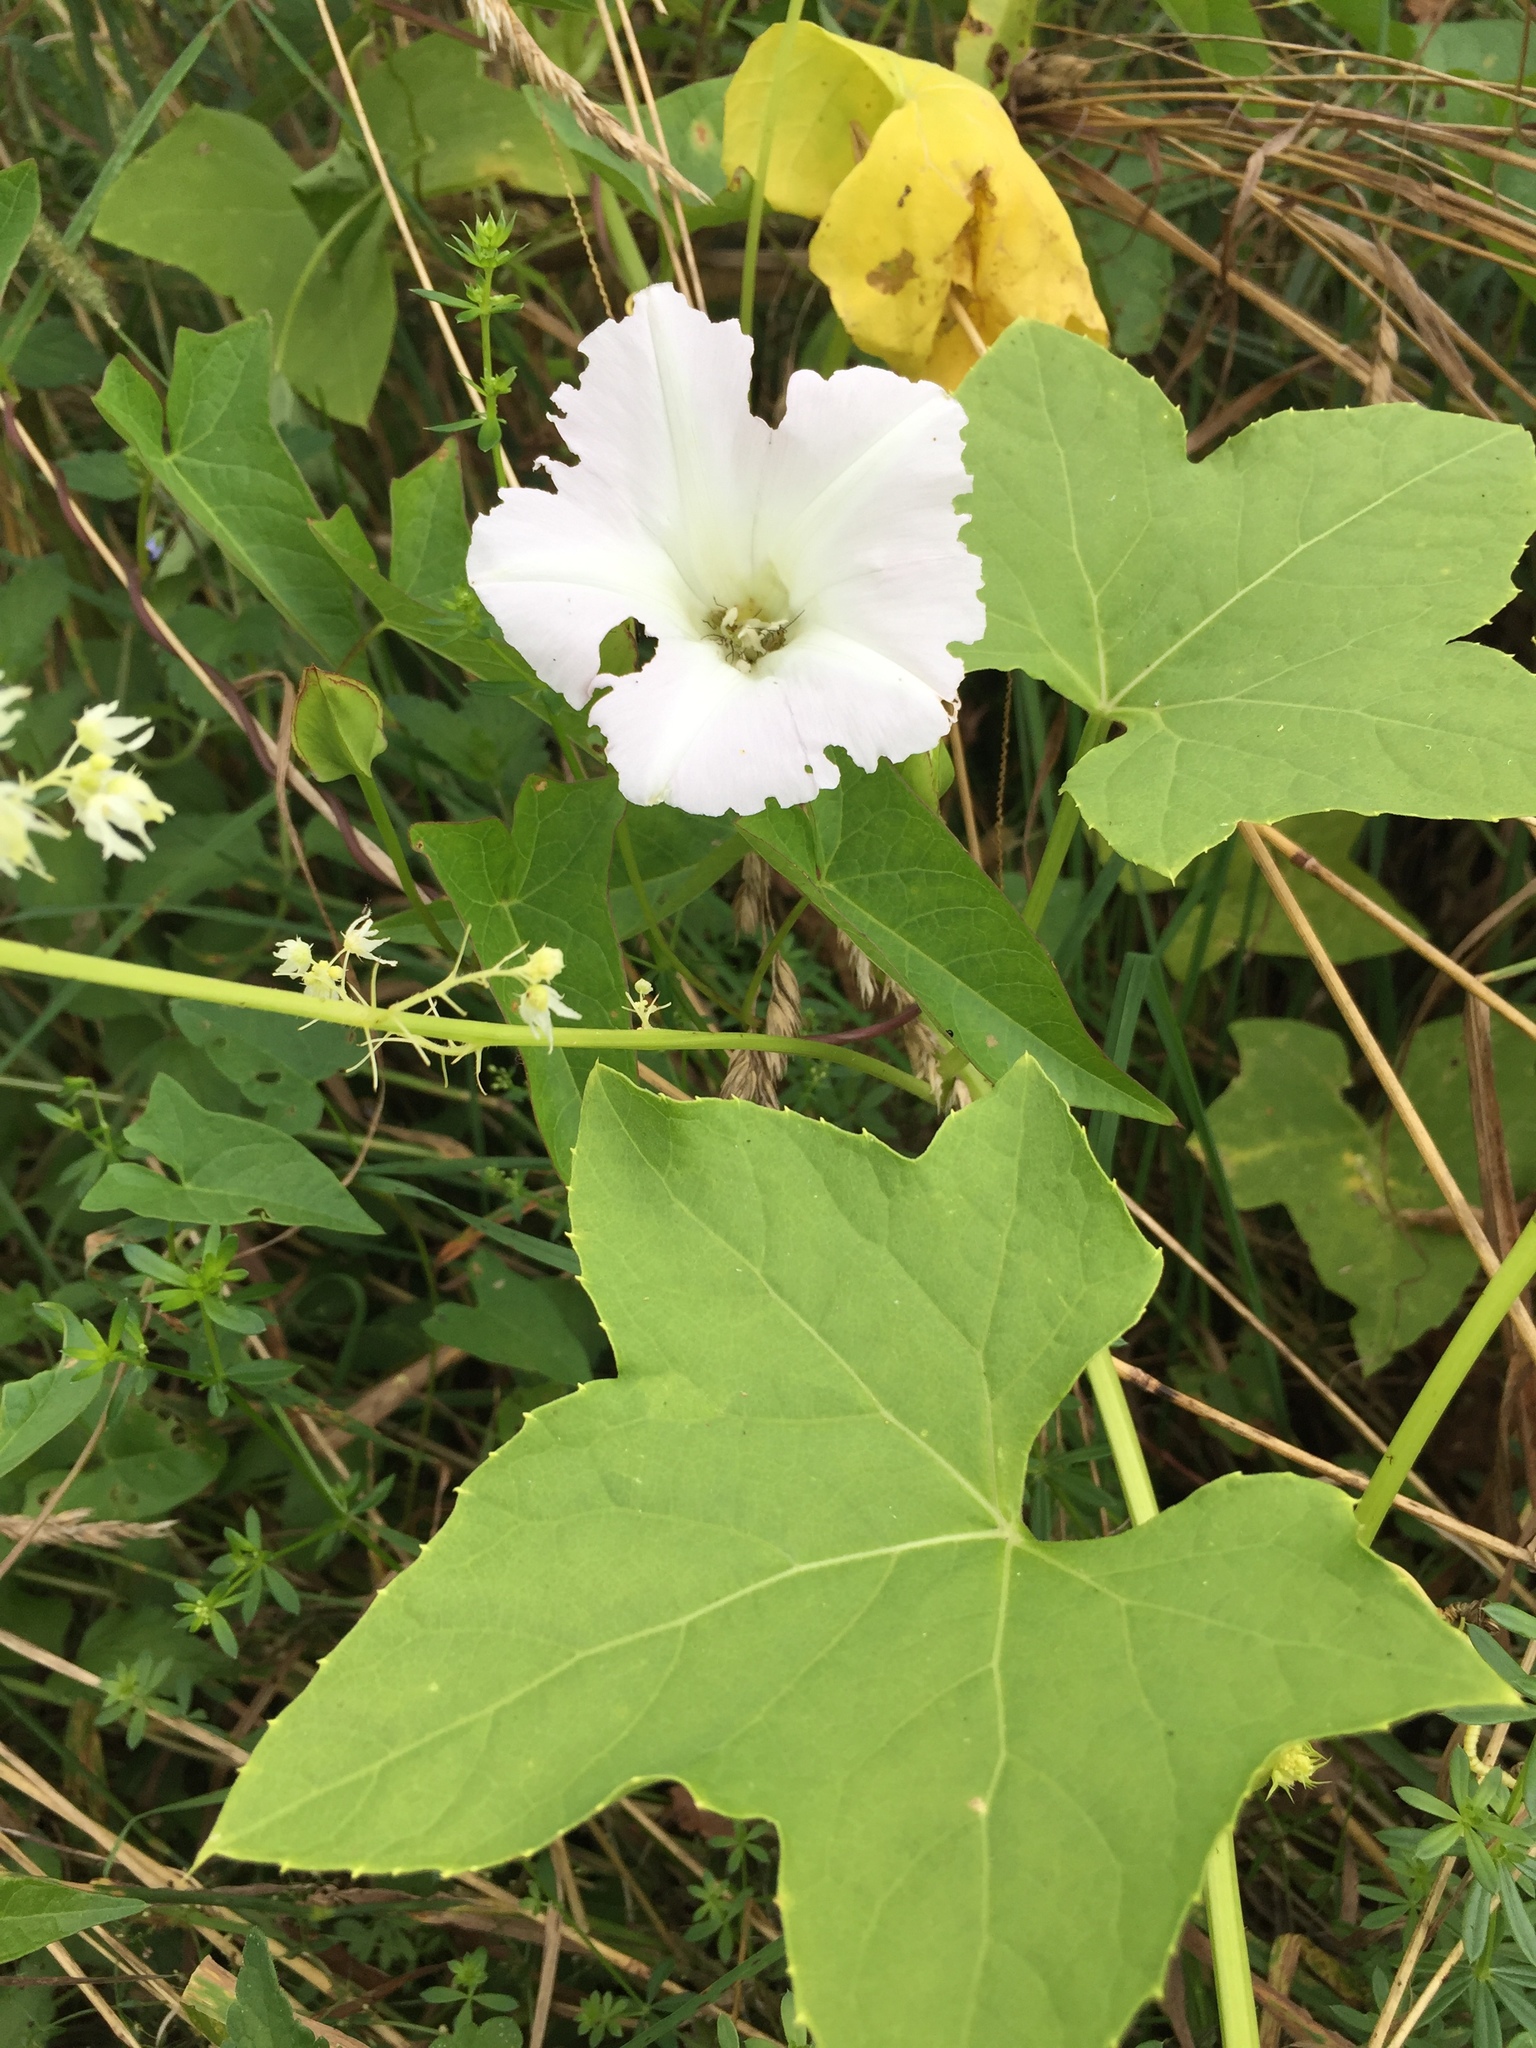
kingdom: Plantae
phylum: Tracheophyta
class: Magnoliopsida
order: Solanales
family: Convolvulaceae
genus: Calystegia
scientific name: Calystegia sepium
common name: Hedge bindweed
